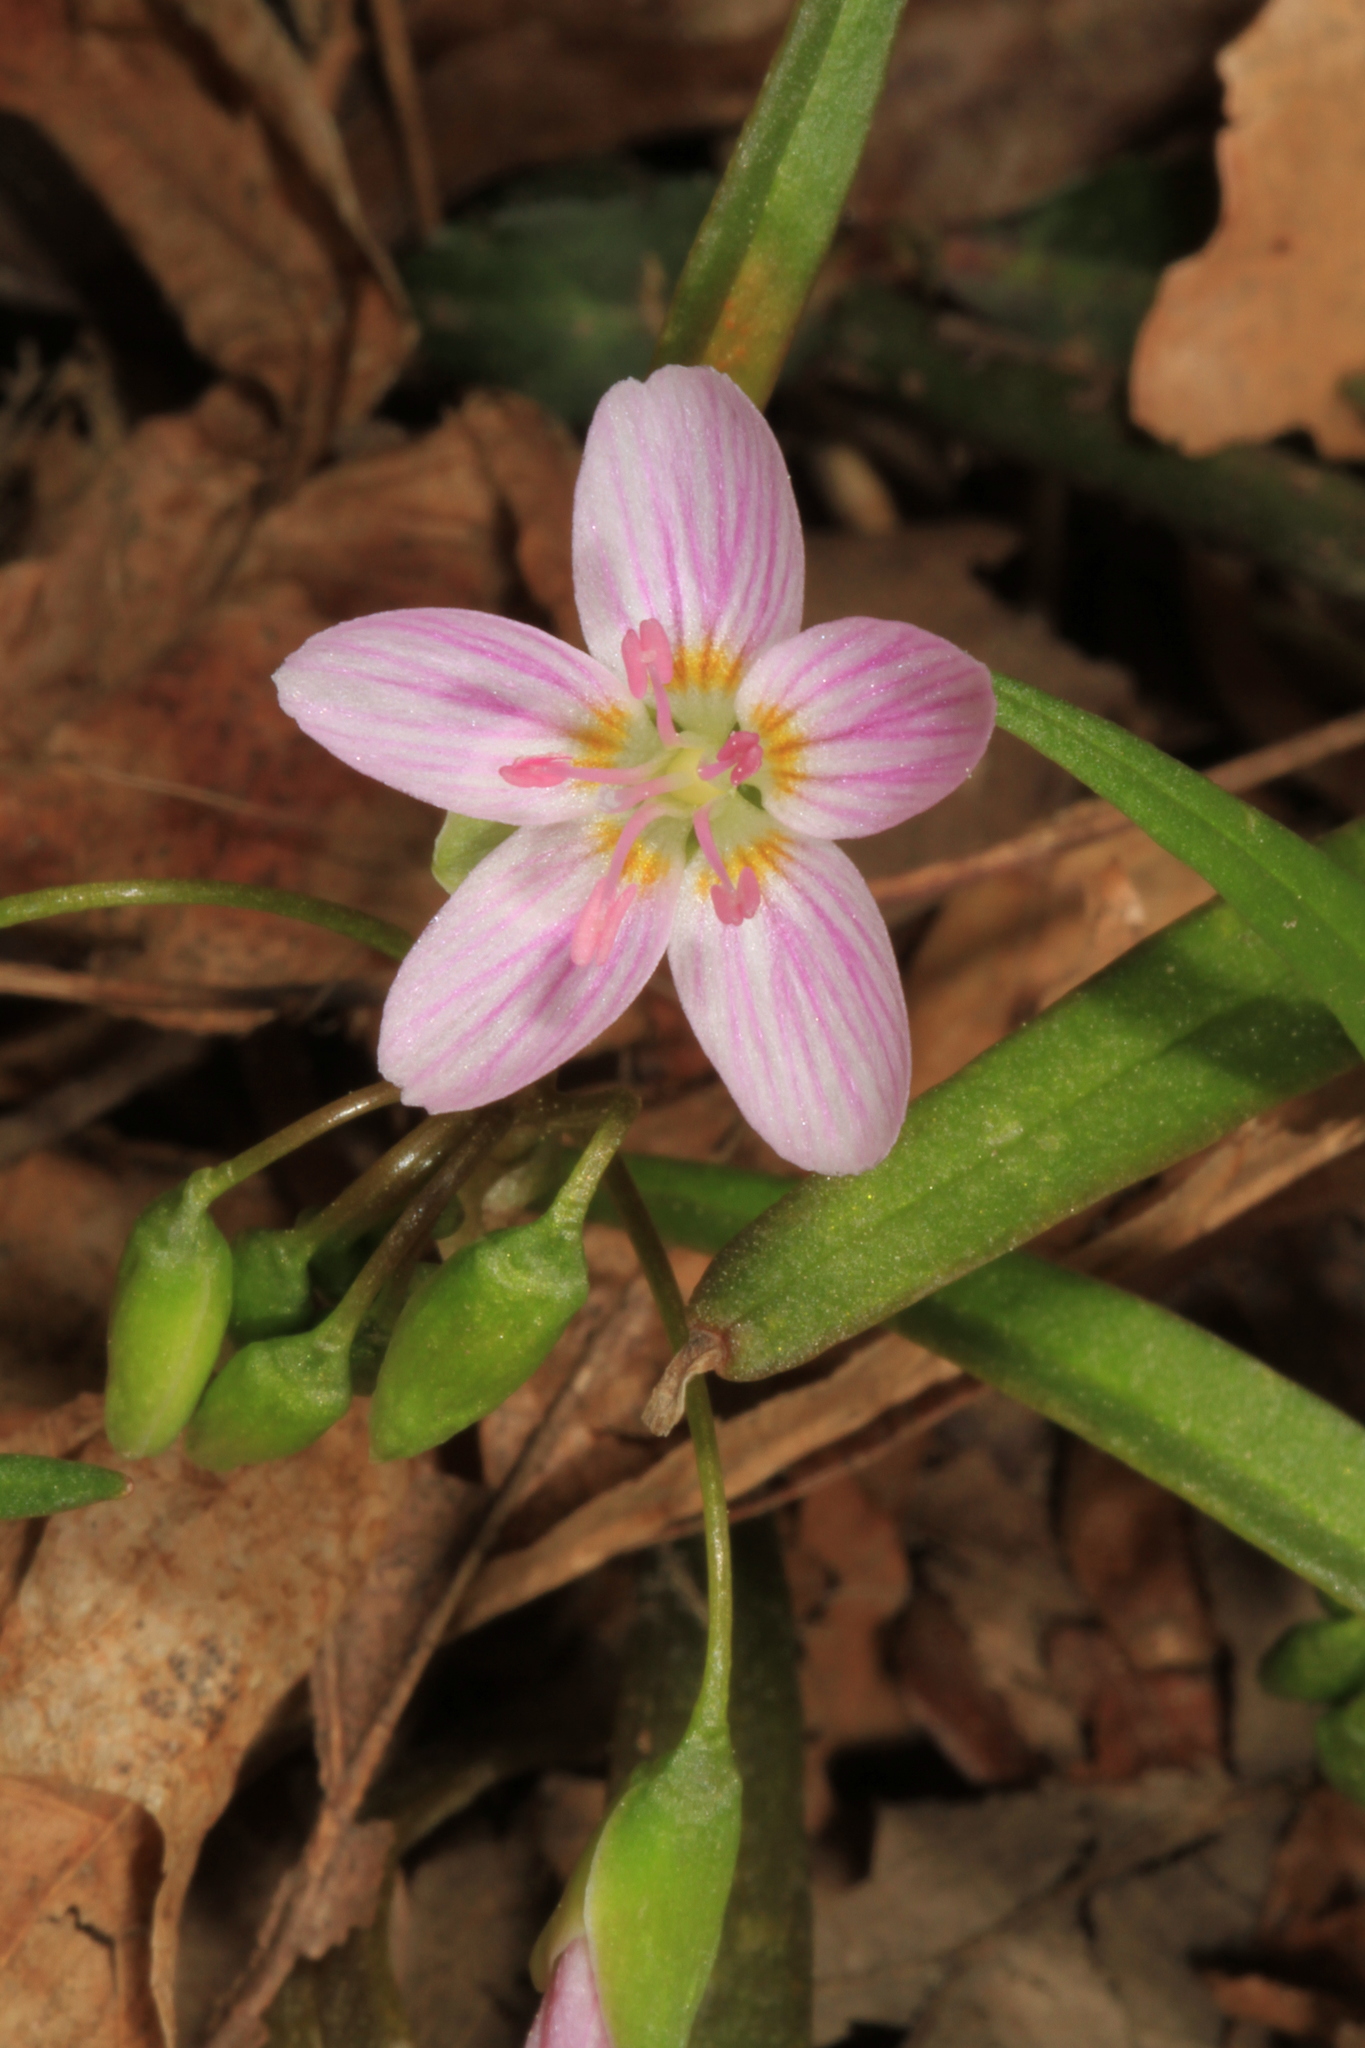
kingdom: Plantae
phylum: Tracheophyta
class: Magnoliopsida
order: Caryophyllales
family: Montiaceae
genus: Claytonia
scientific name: Claytonia virginica
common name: Virginia springbeauty
